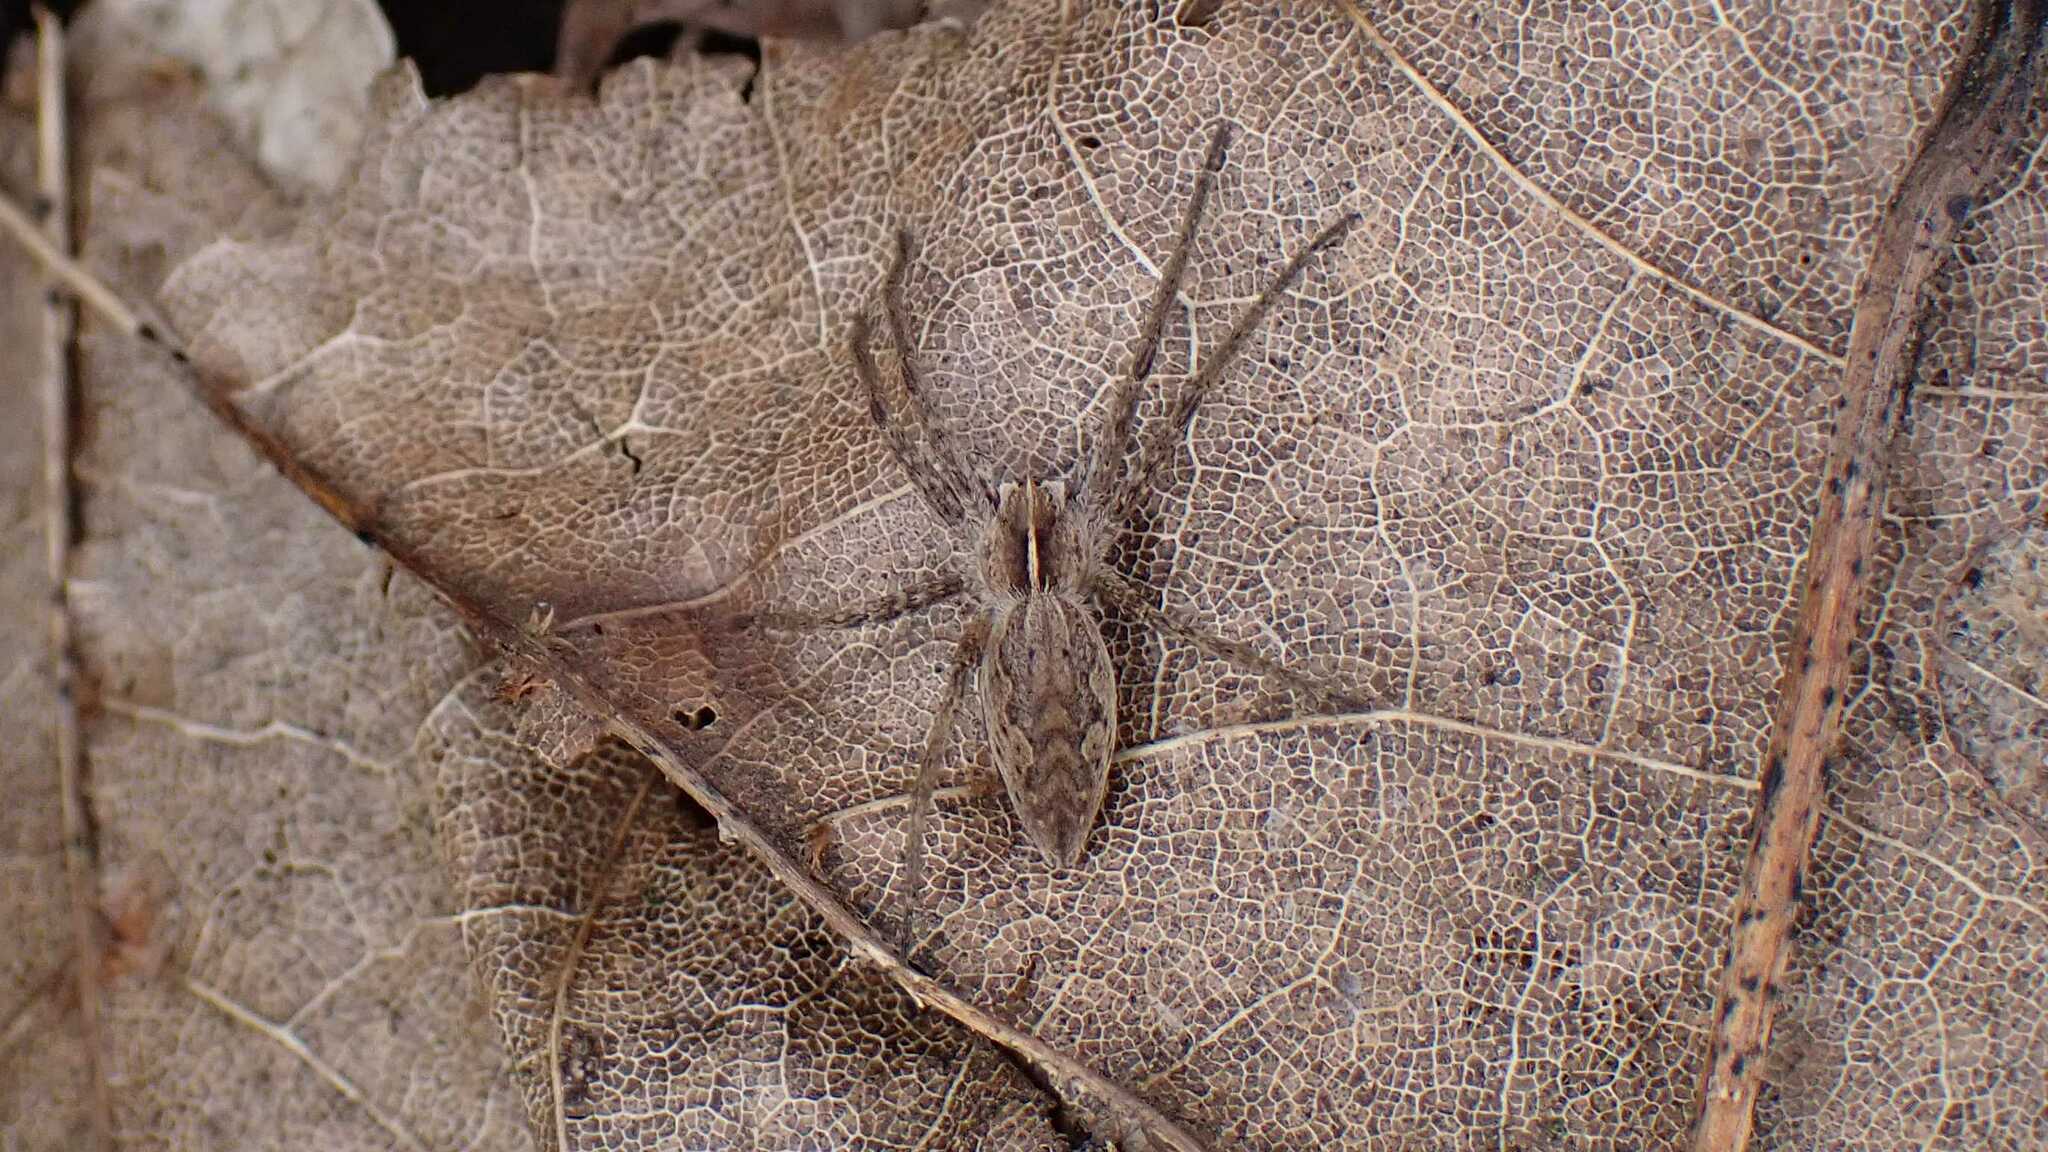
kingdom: Animalia
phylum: Arthropoda
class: Arachnida
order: Araneae
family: Pisauridae
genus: Pisaura
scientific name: Pisaura mirabilis
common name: Tent spider
